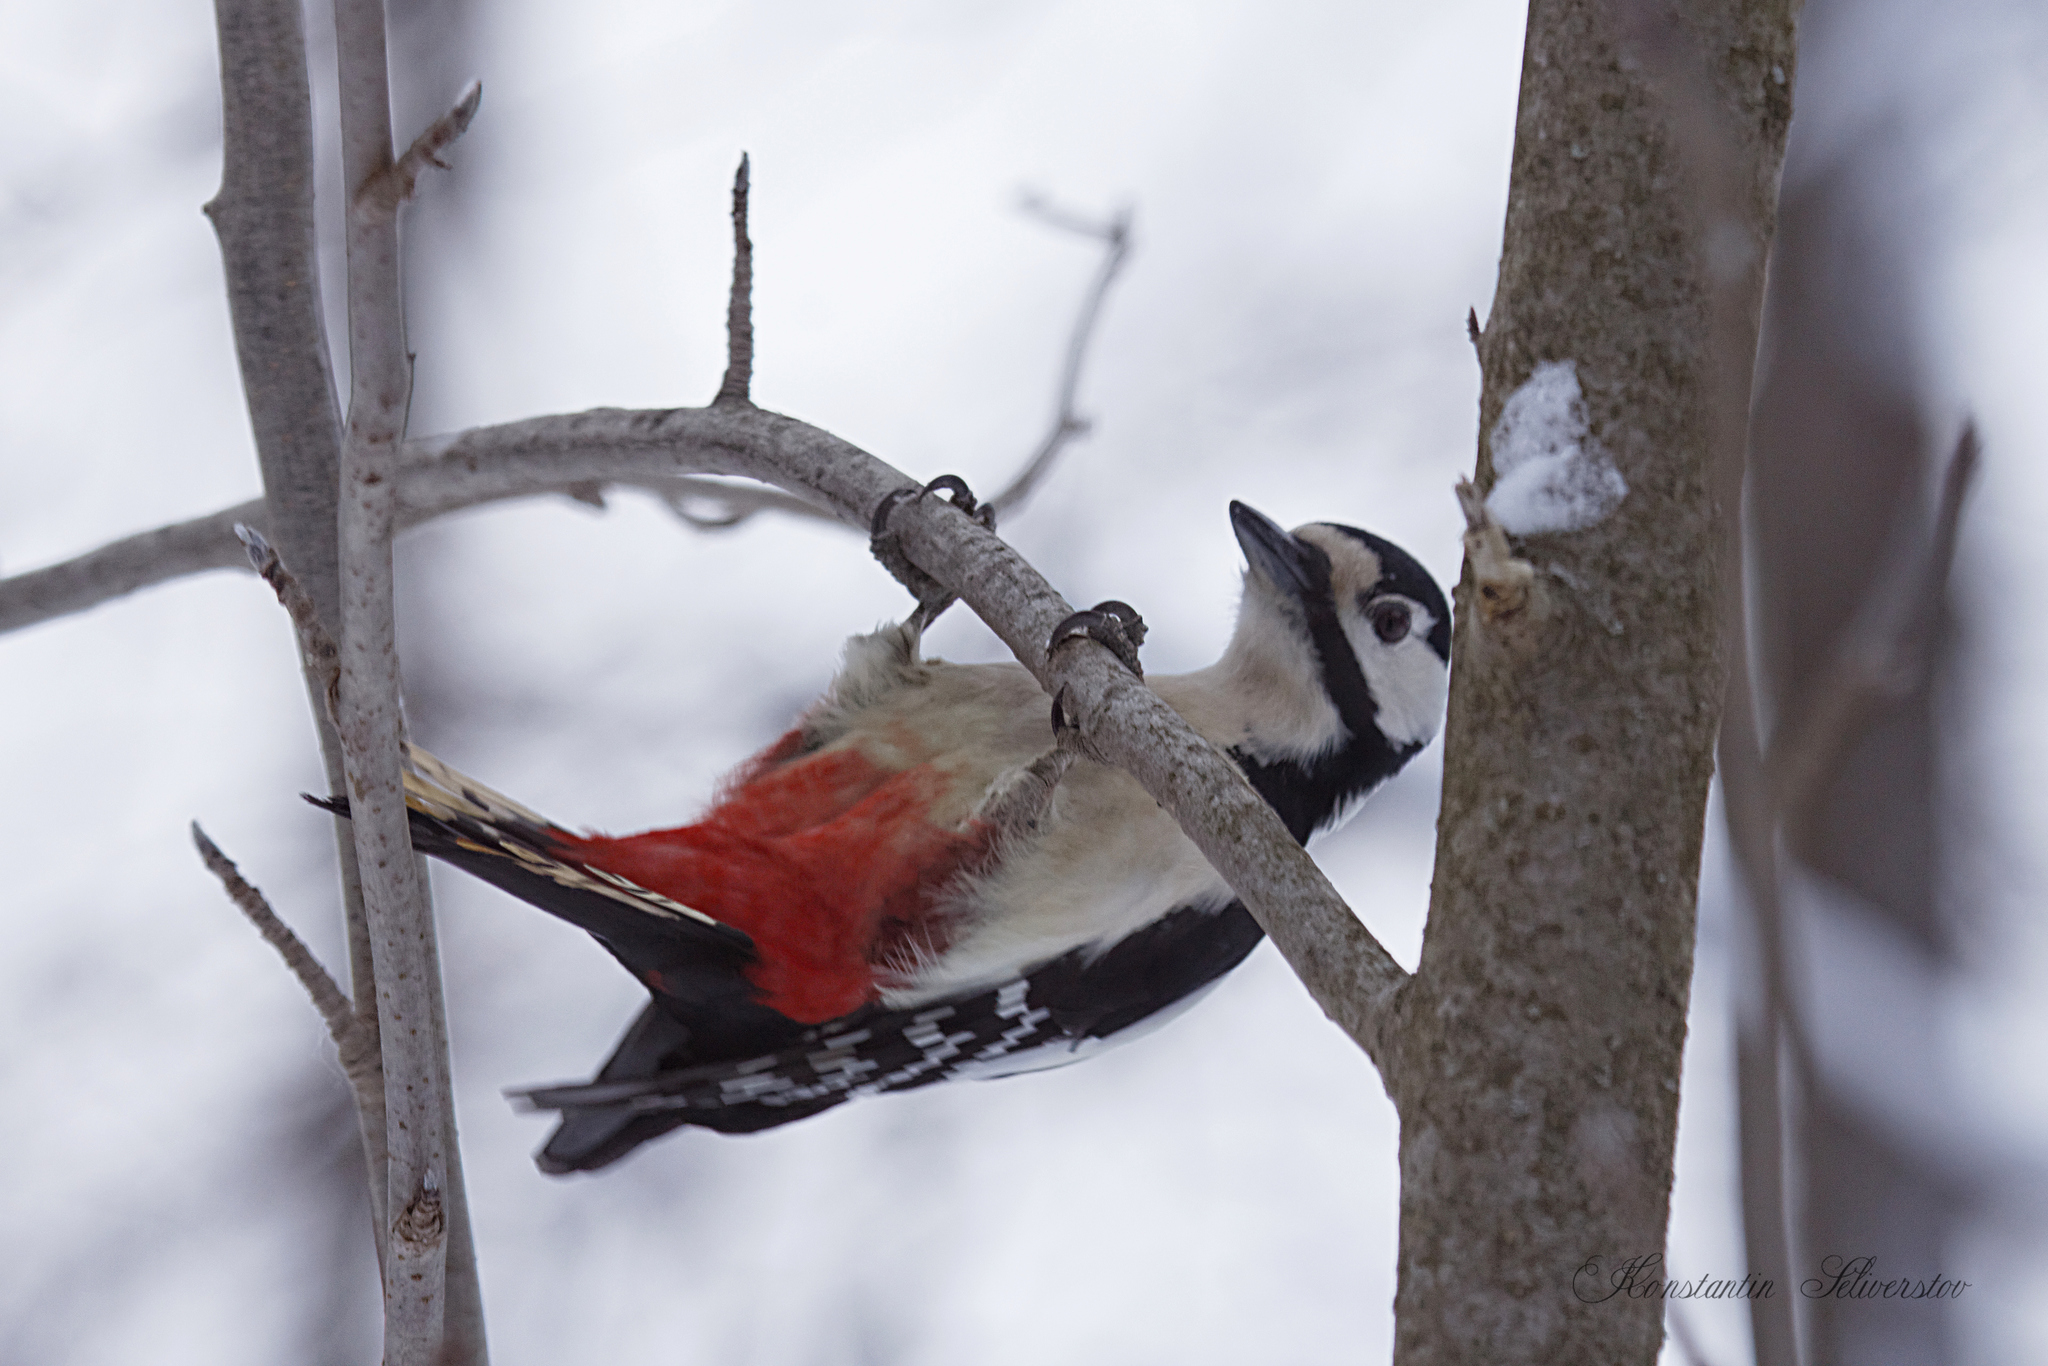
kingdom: Animalia
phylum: Chordata
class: Aves
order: Piciformes
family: Picidae
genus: Dendrocopos
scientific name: Dendrocopos major
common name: Great spotted woodpecker
